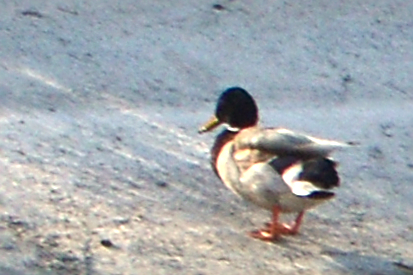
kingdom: Animalia
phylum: Chordata
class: Aves
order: Anseriformes
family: Anatidae
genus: Anas
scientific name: Anas platyrhynchos
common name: Mallard
